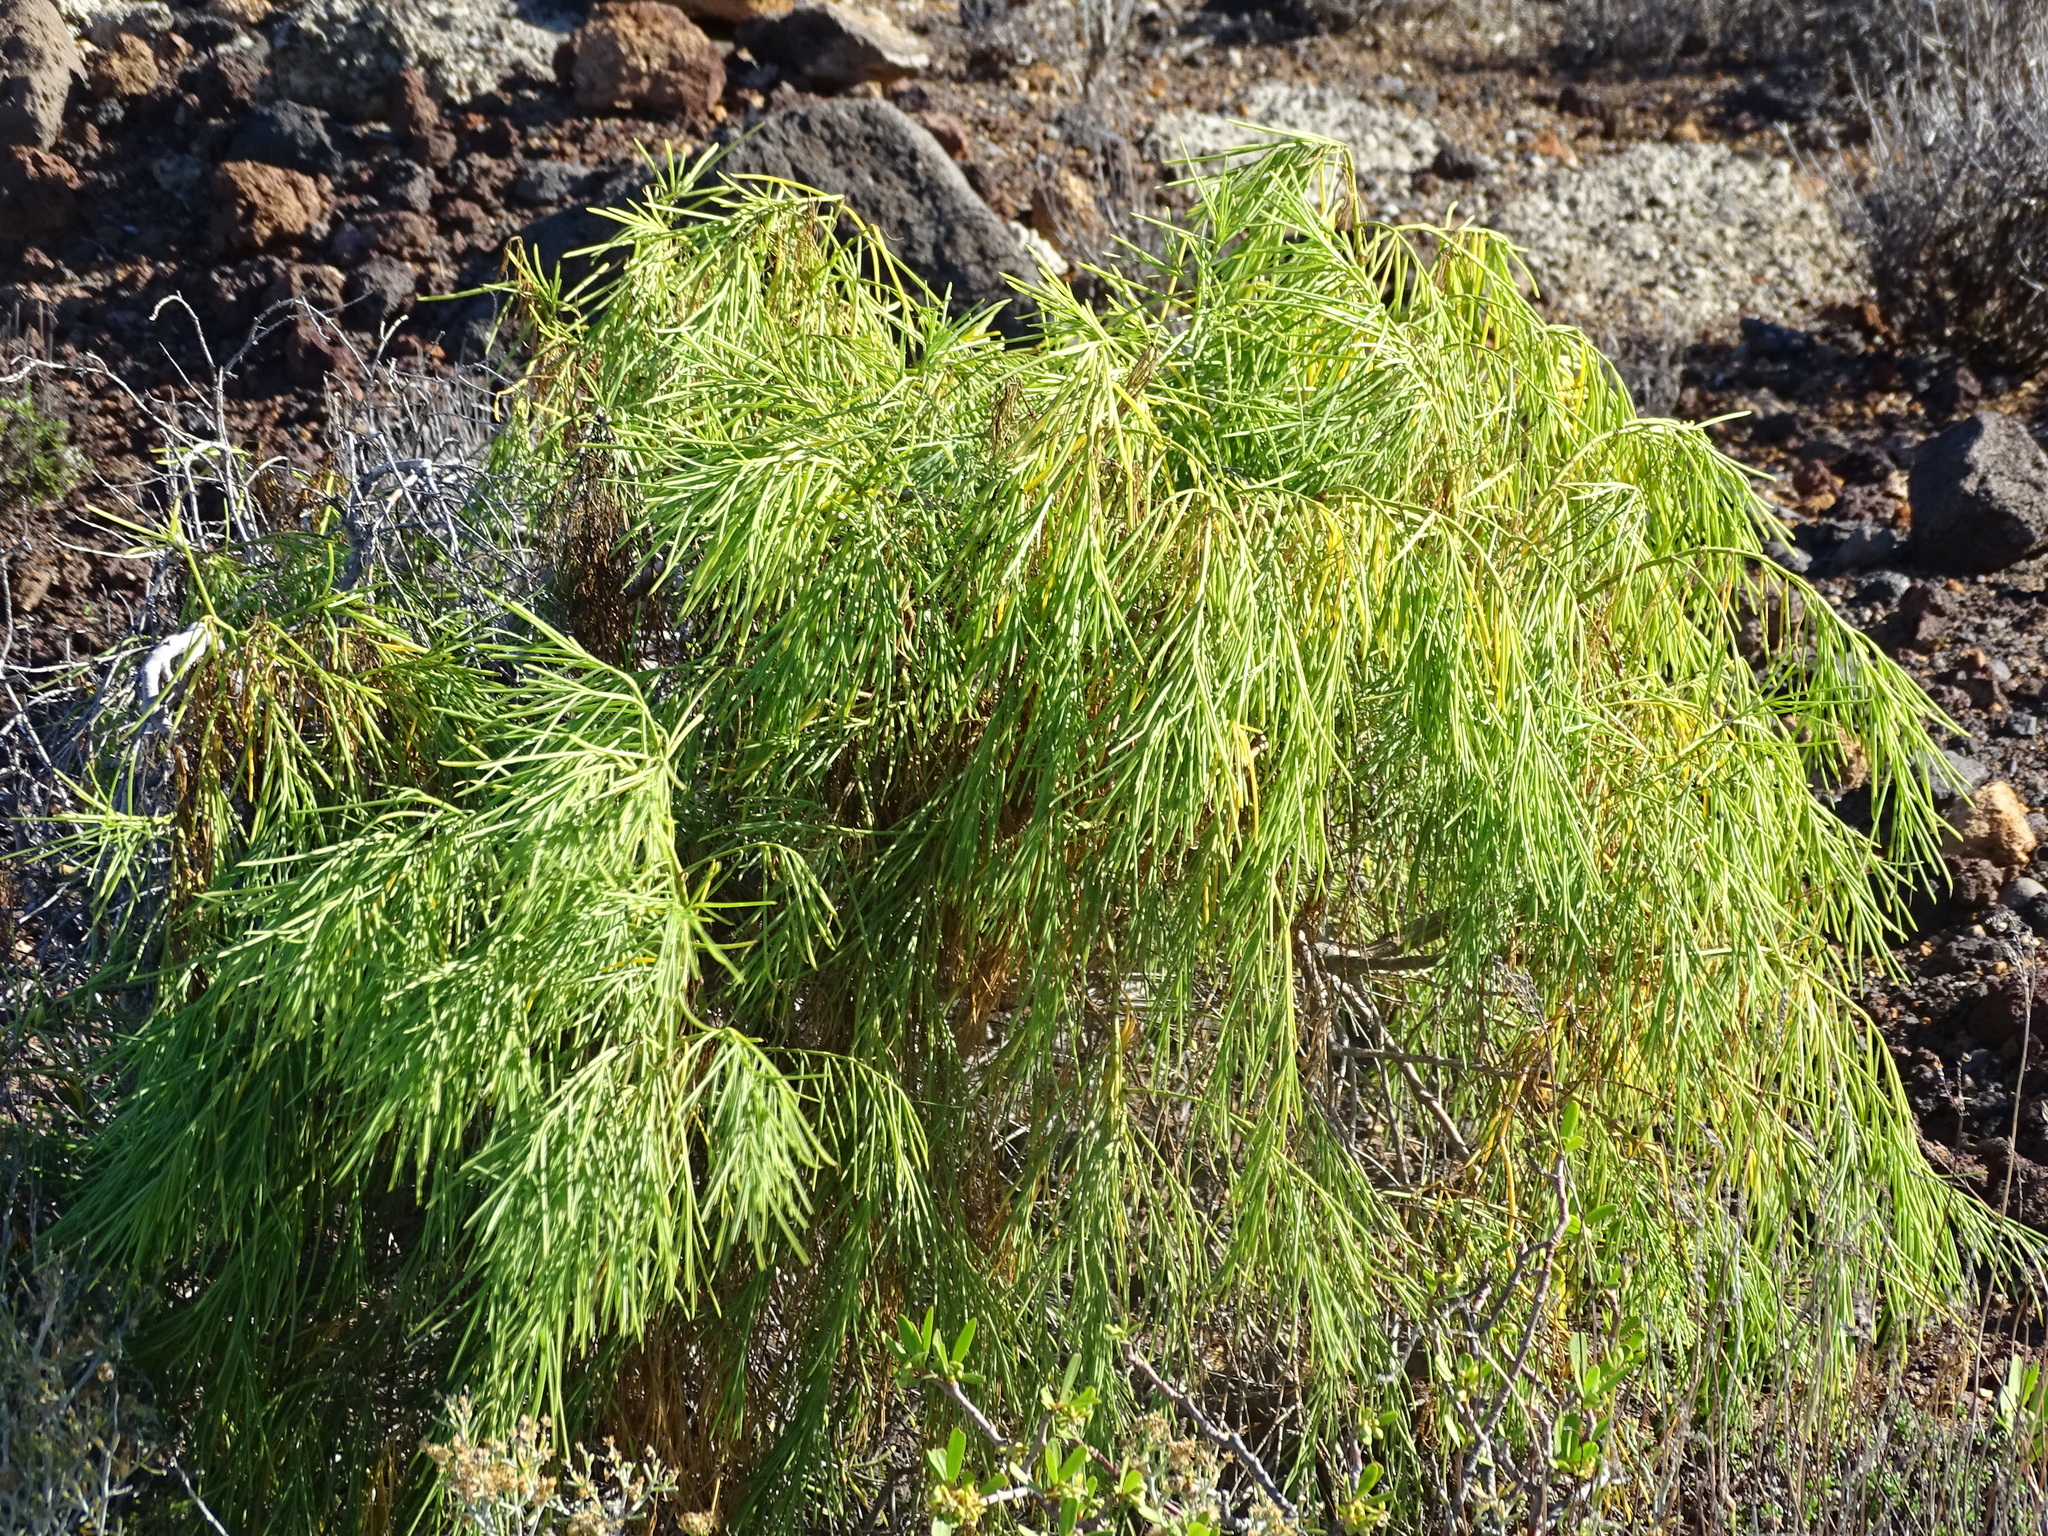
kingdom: Plantae
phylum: Tracheophyta
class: Magnoliopsida
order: Gentianales
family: Rubiaceae
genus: Plocama
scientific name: Plocama pendula
